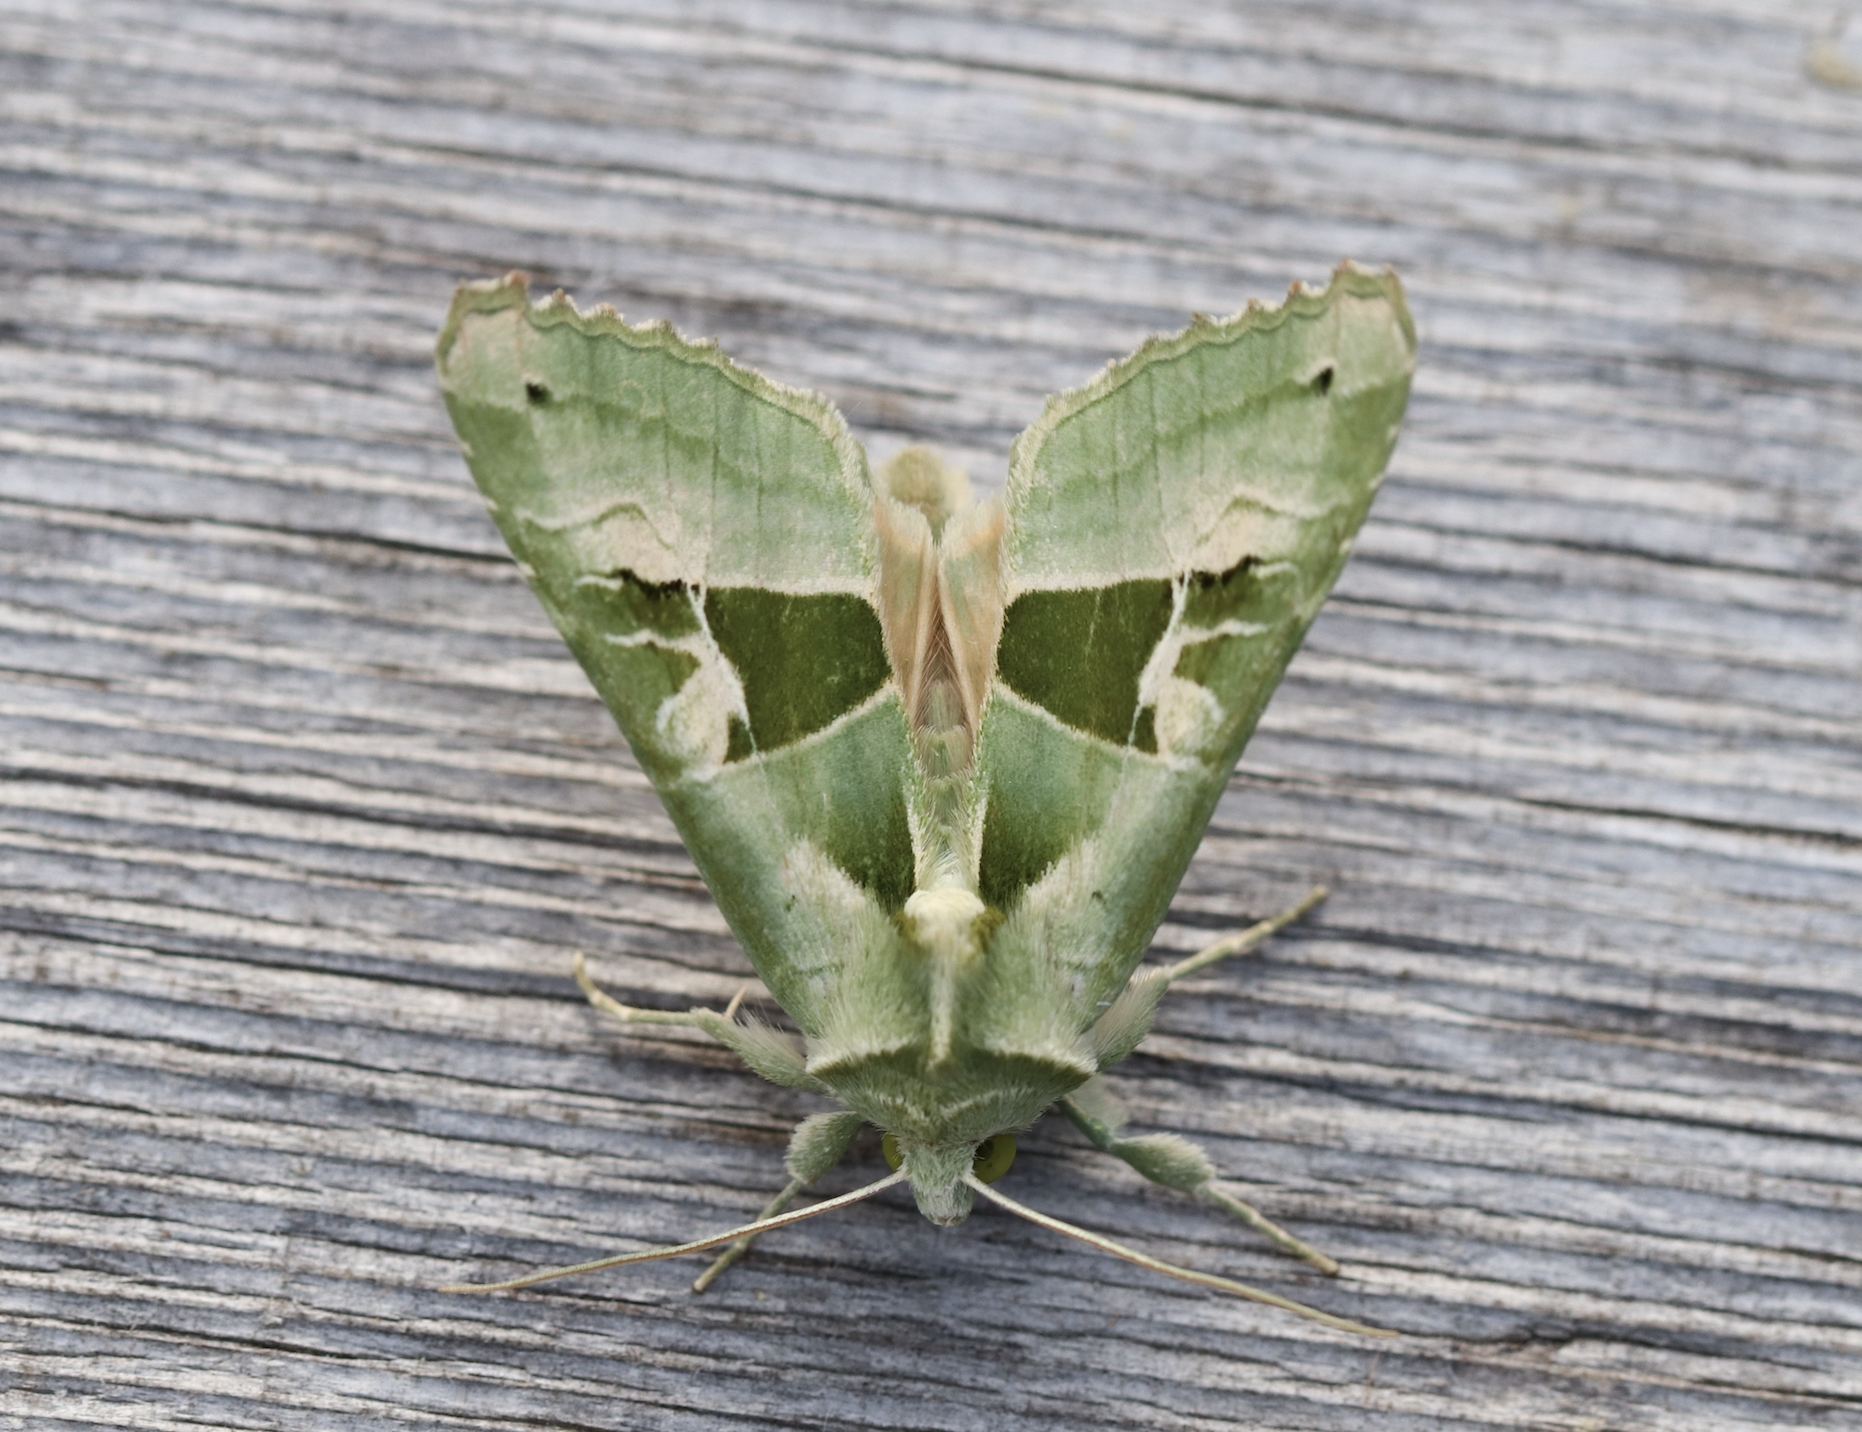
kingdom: Animalia
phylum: Arthropoda
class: Insecta
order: Lepidoptera
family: Noctuidae
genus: Phlogophora
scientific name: Phlogophora scita
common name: Green angle shades
